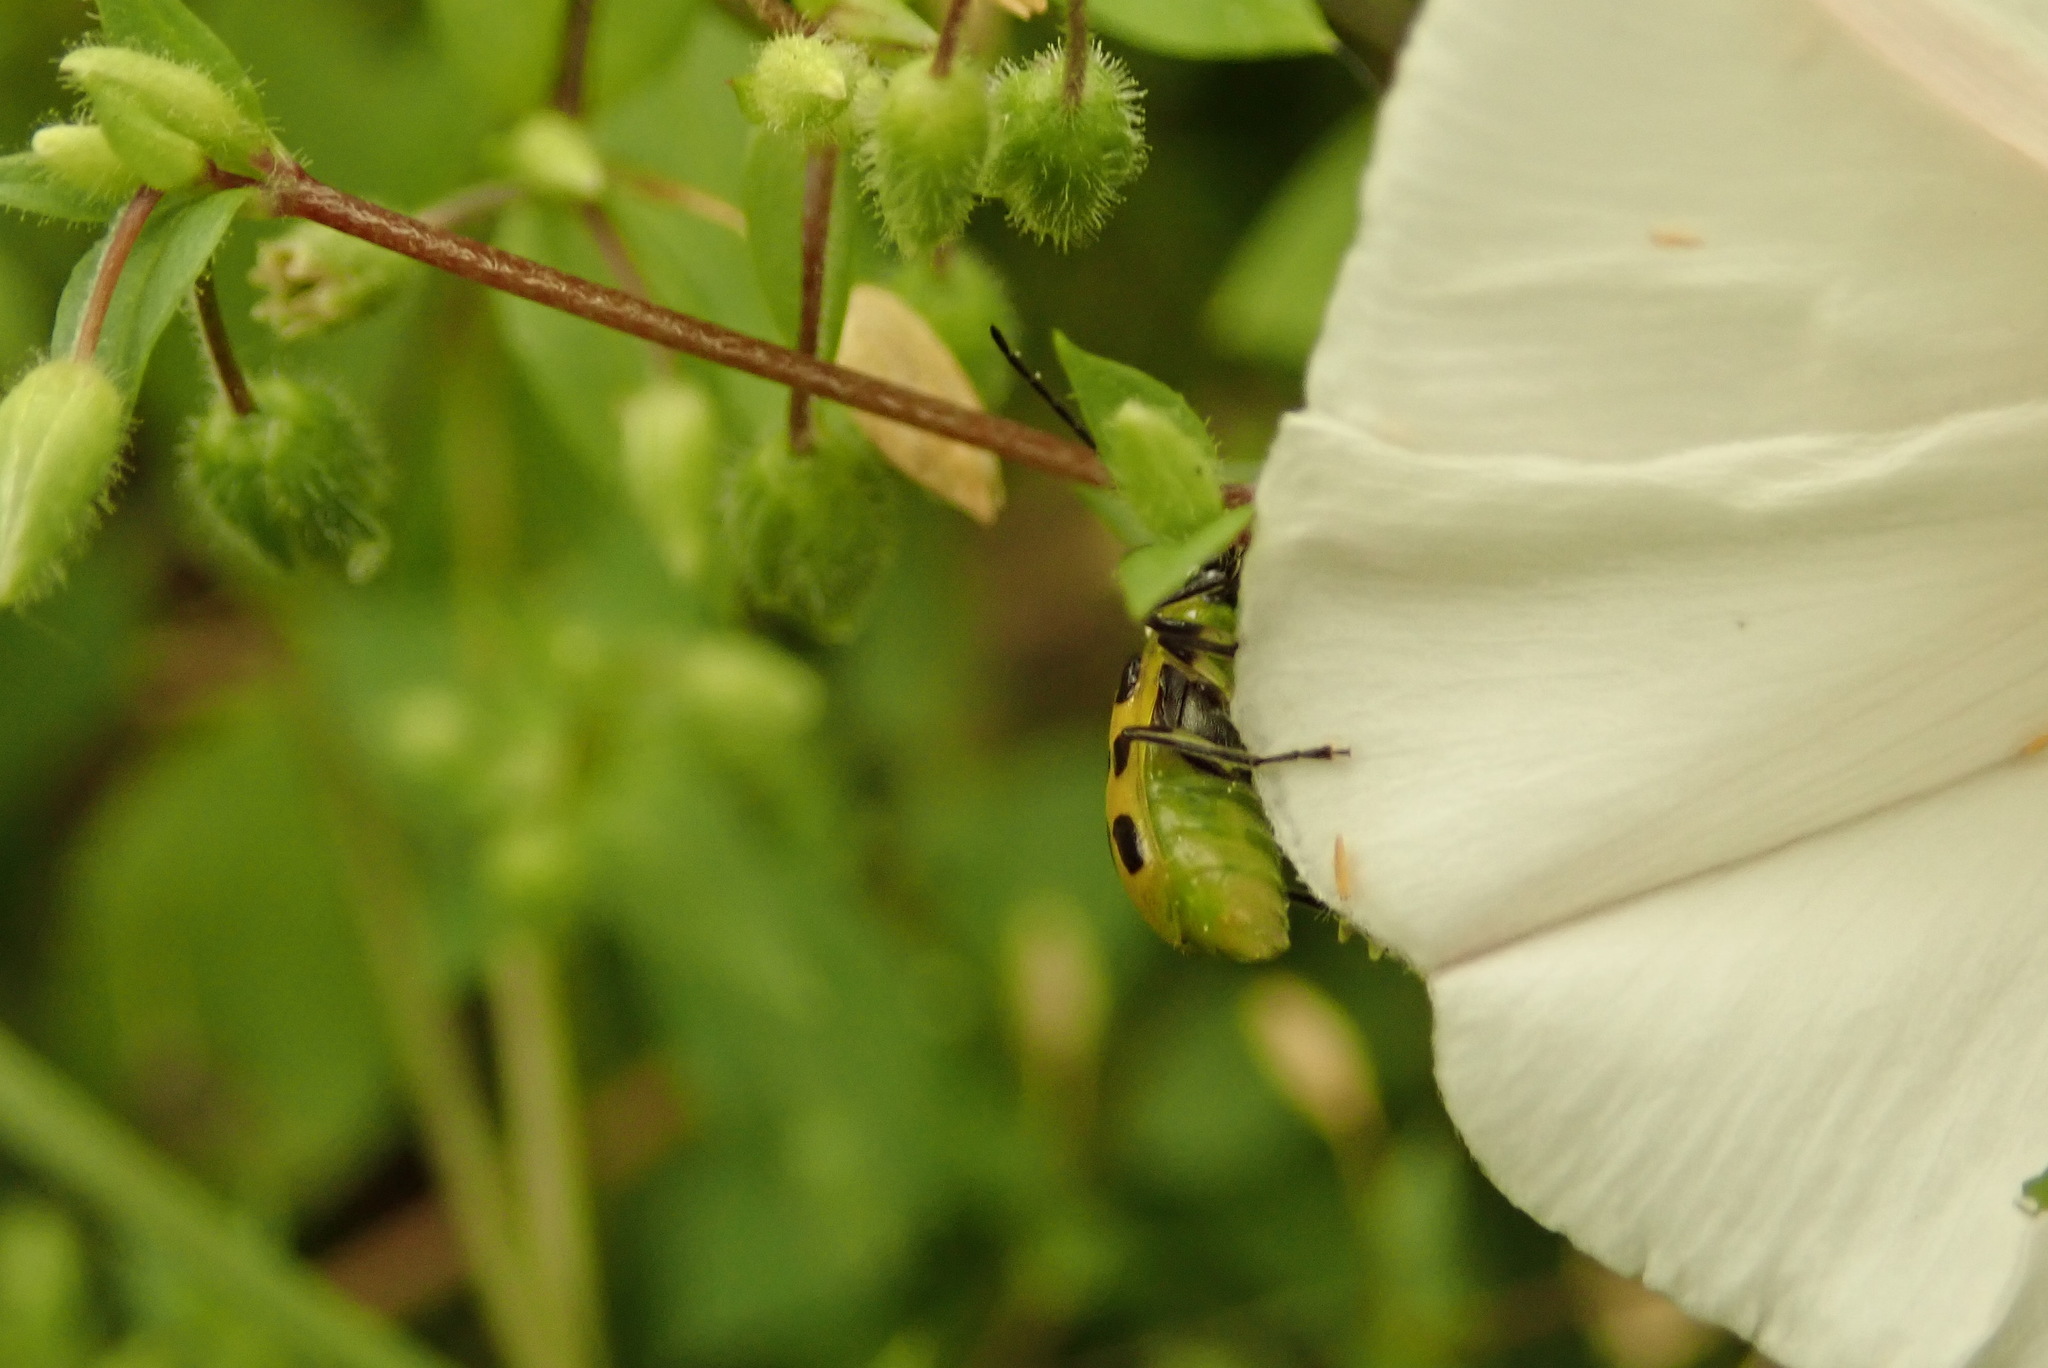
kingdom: Animalia
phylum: Arthropoda
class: Insecta
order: Coleoptera
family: Chrysomelidae
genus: Diabrotica
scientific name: Diabrotica undecimpunctata
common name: Spotted cucumber beetle
